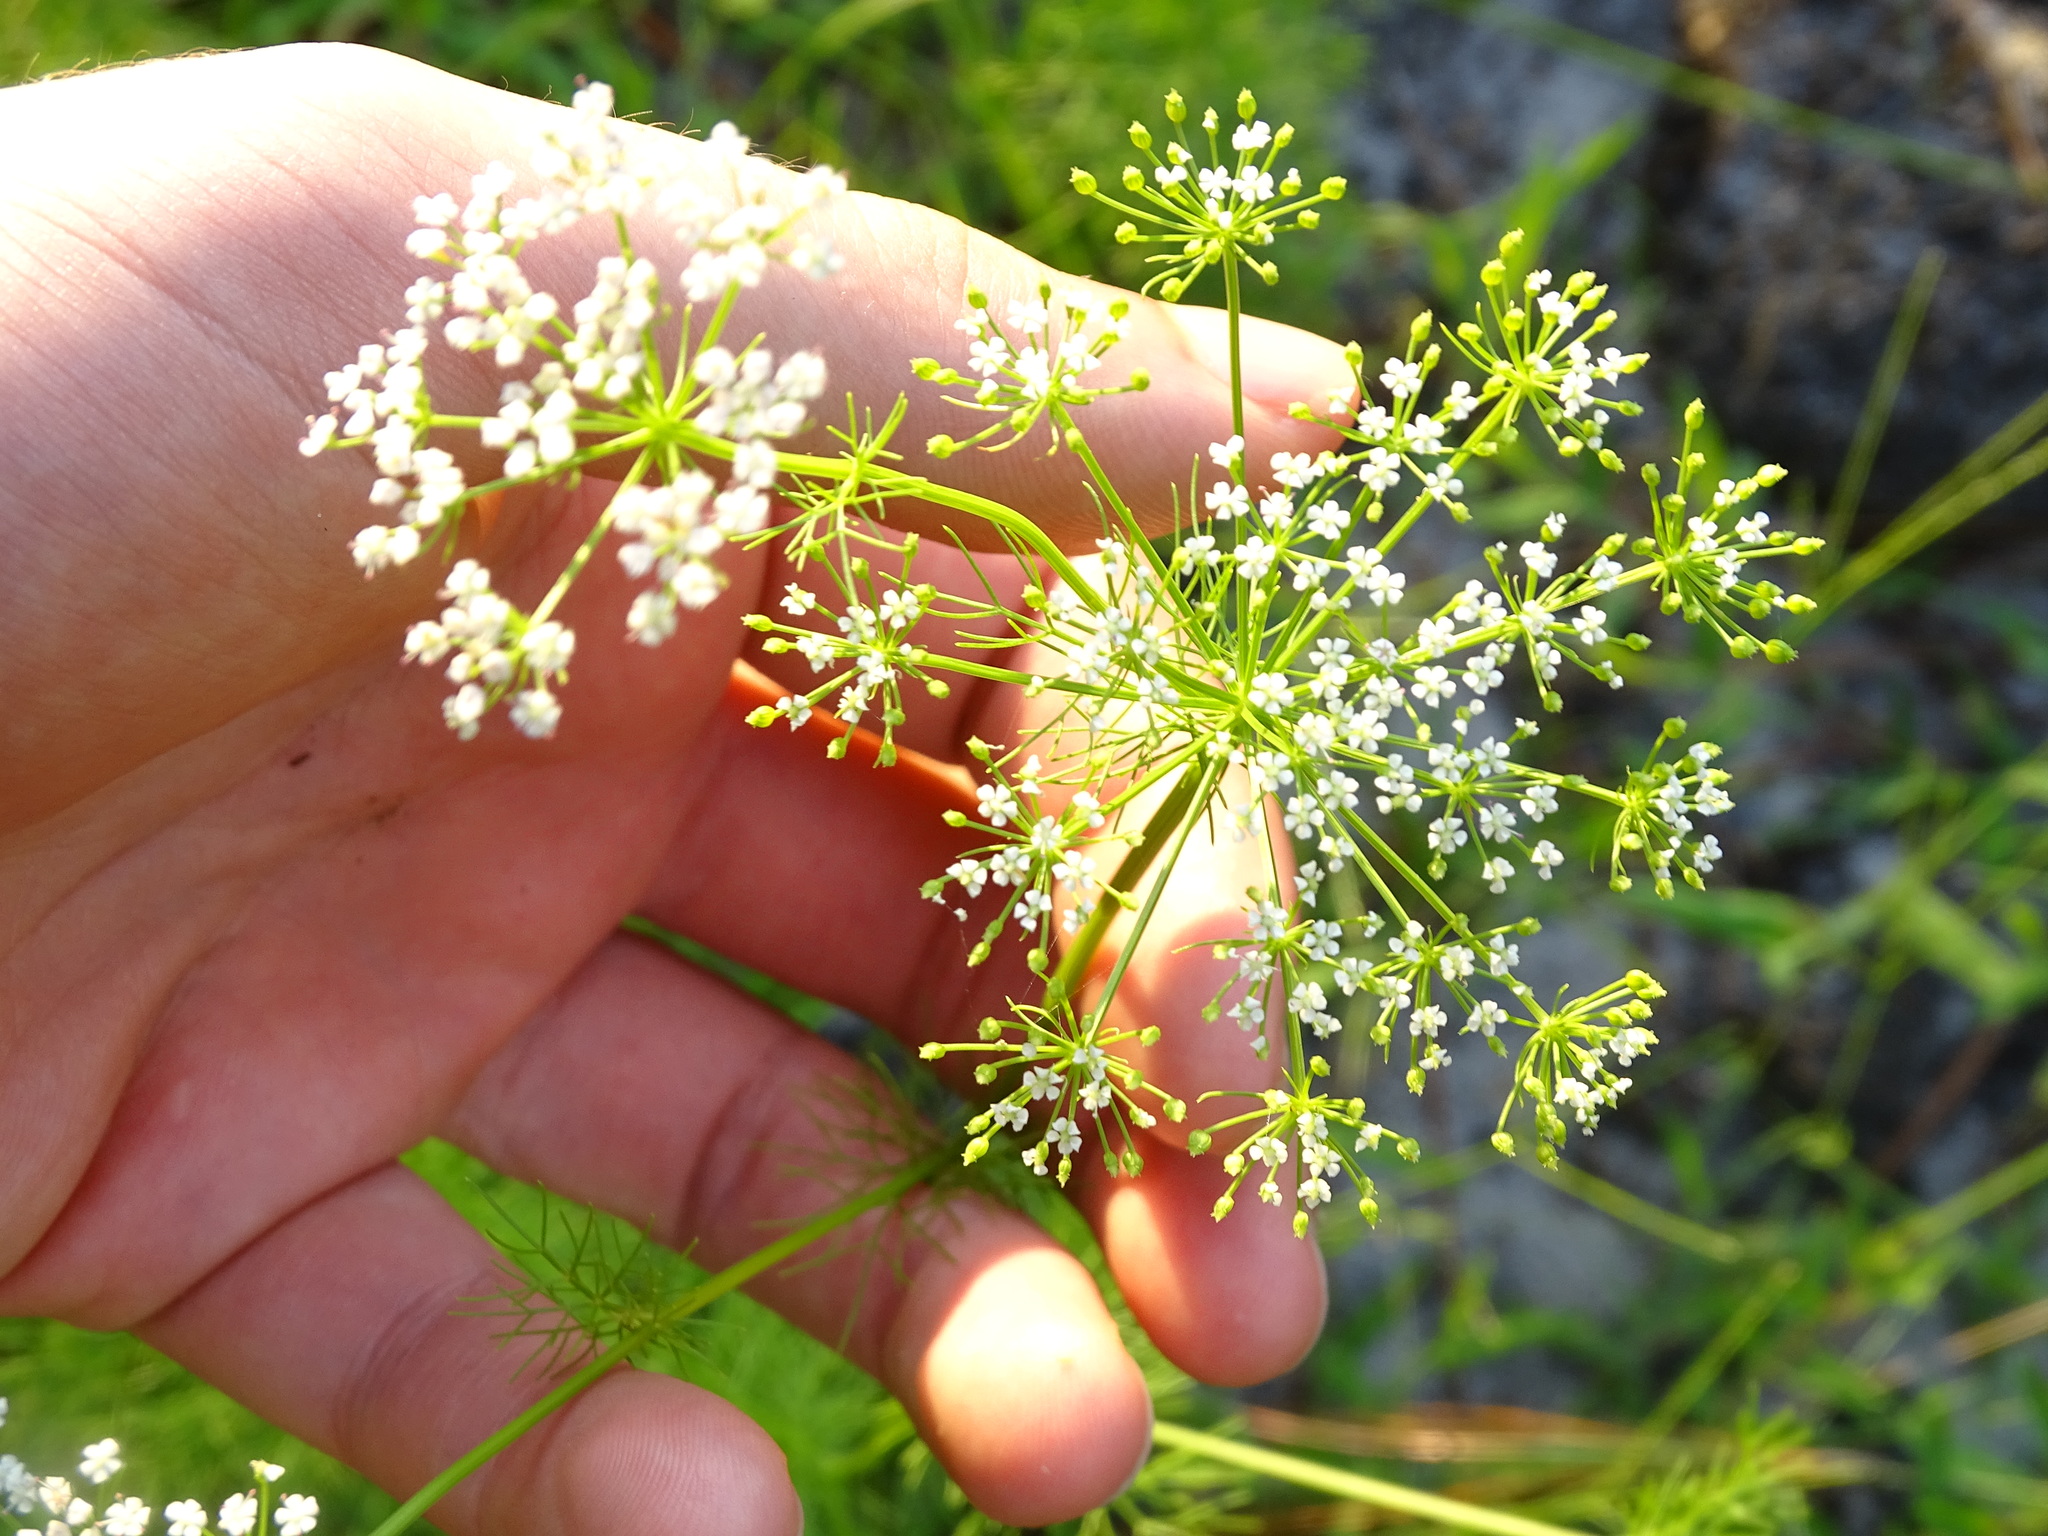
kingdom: Plantae
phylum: Tracheophyta
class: Magnoliopsida
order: Apiales
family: Apiaceae
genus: Ptilimnium
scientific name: Ptilimnium capillaceum
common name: Herbwilliam
